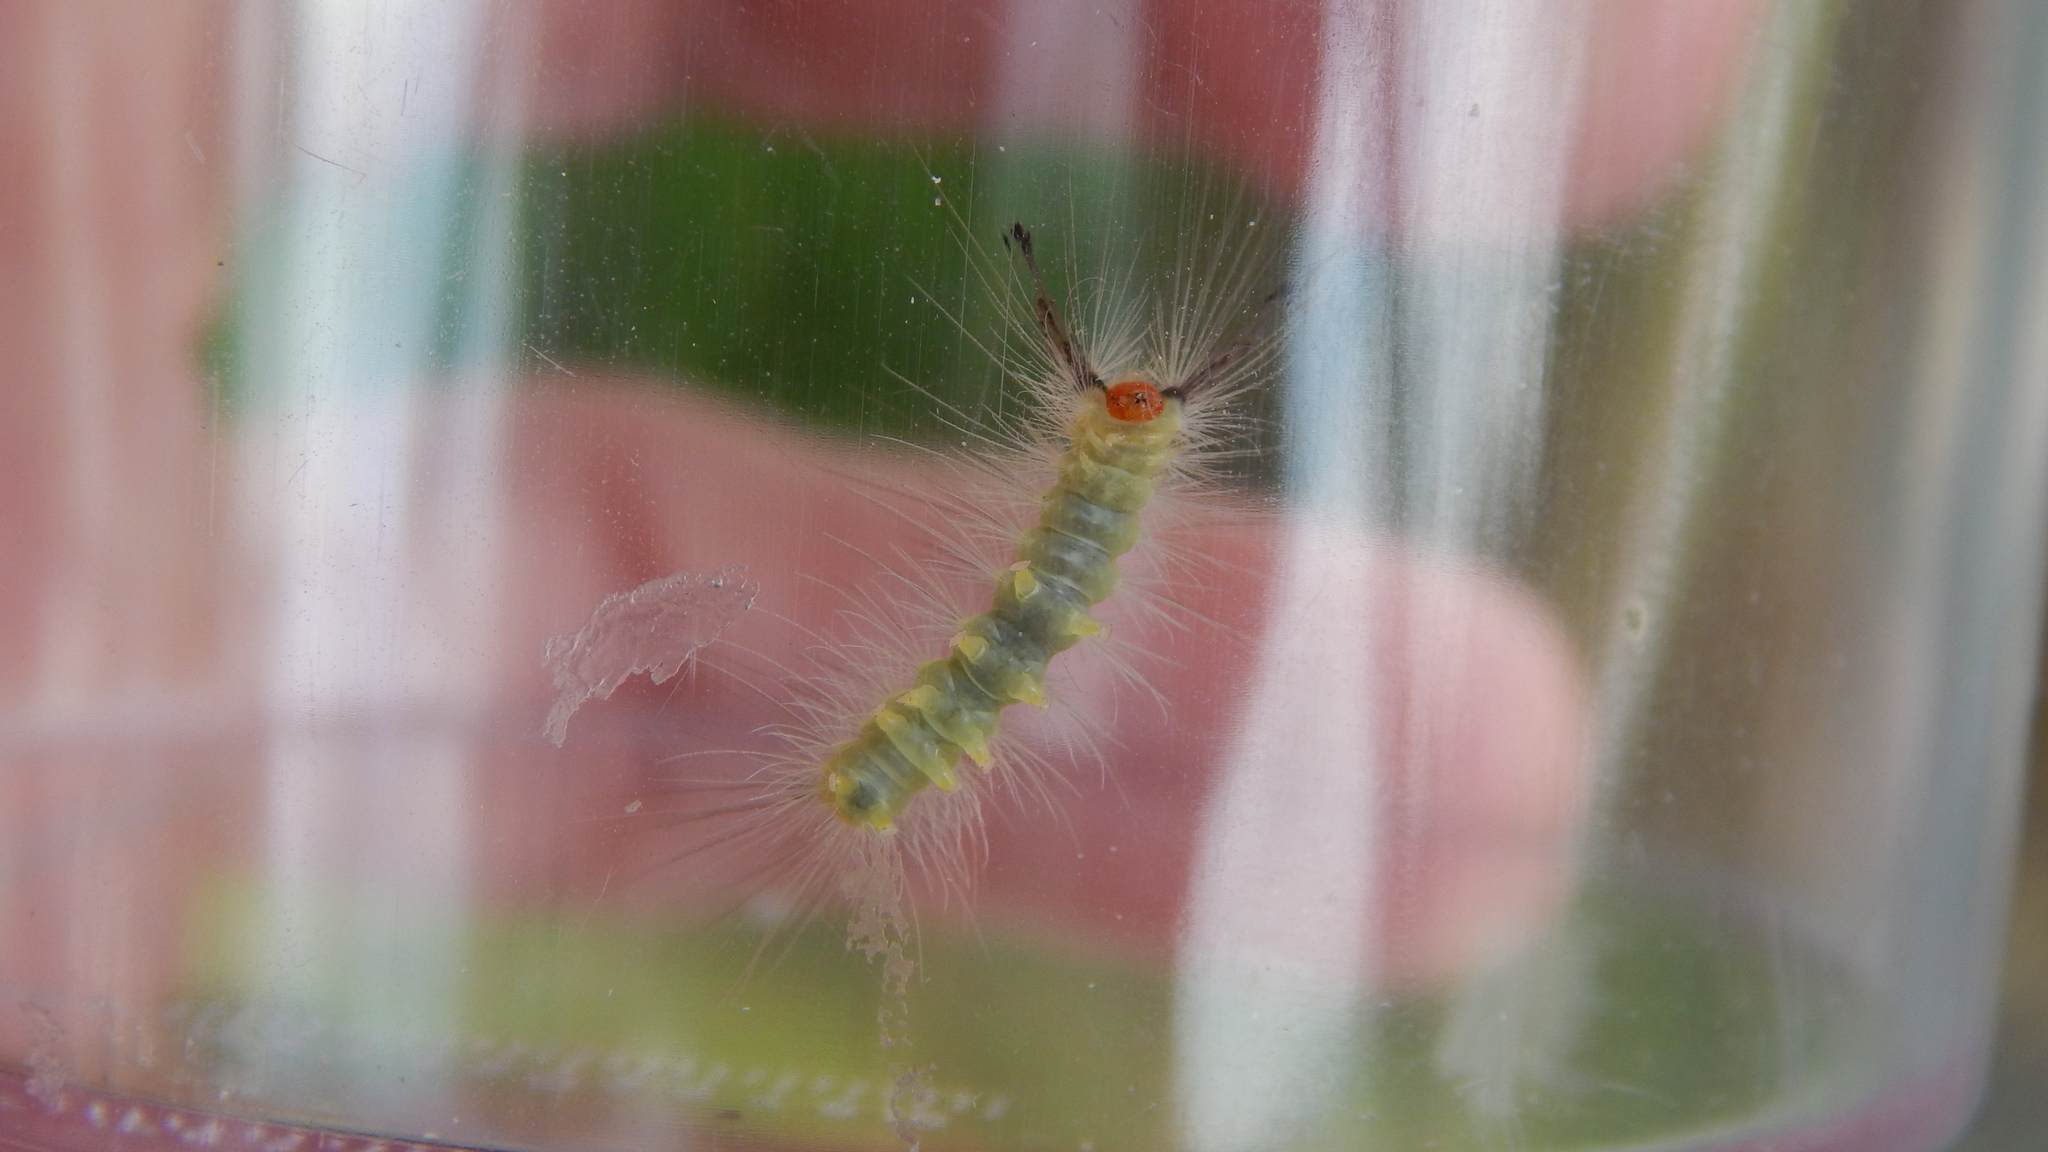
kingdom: Animalia
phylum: Arthropoda
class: Insecta
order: Lepidoptera
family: Erebidae
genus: Orgyia
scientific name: Orgyia leucostigma
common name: White-marked tussock moth
